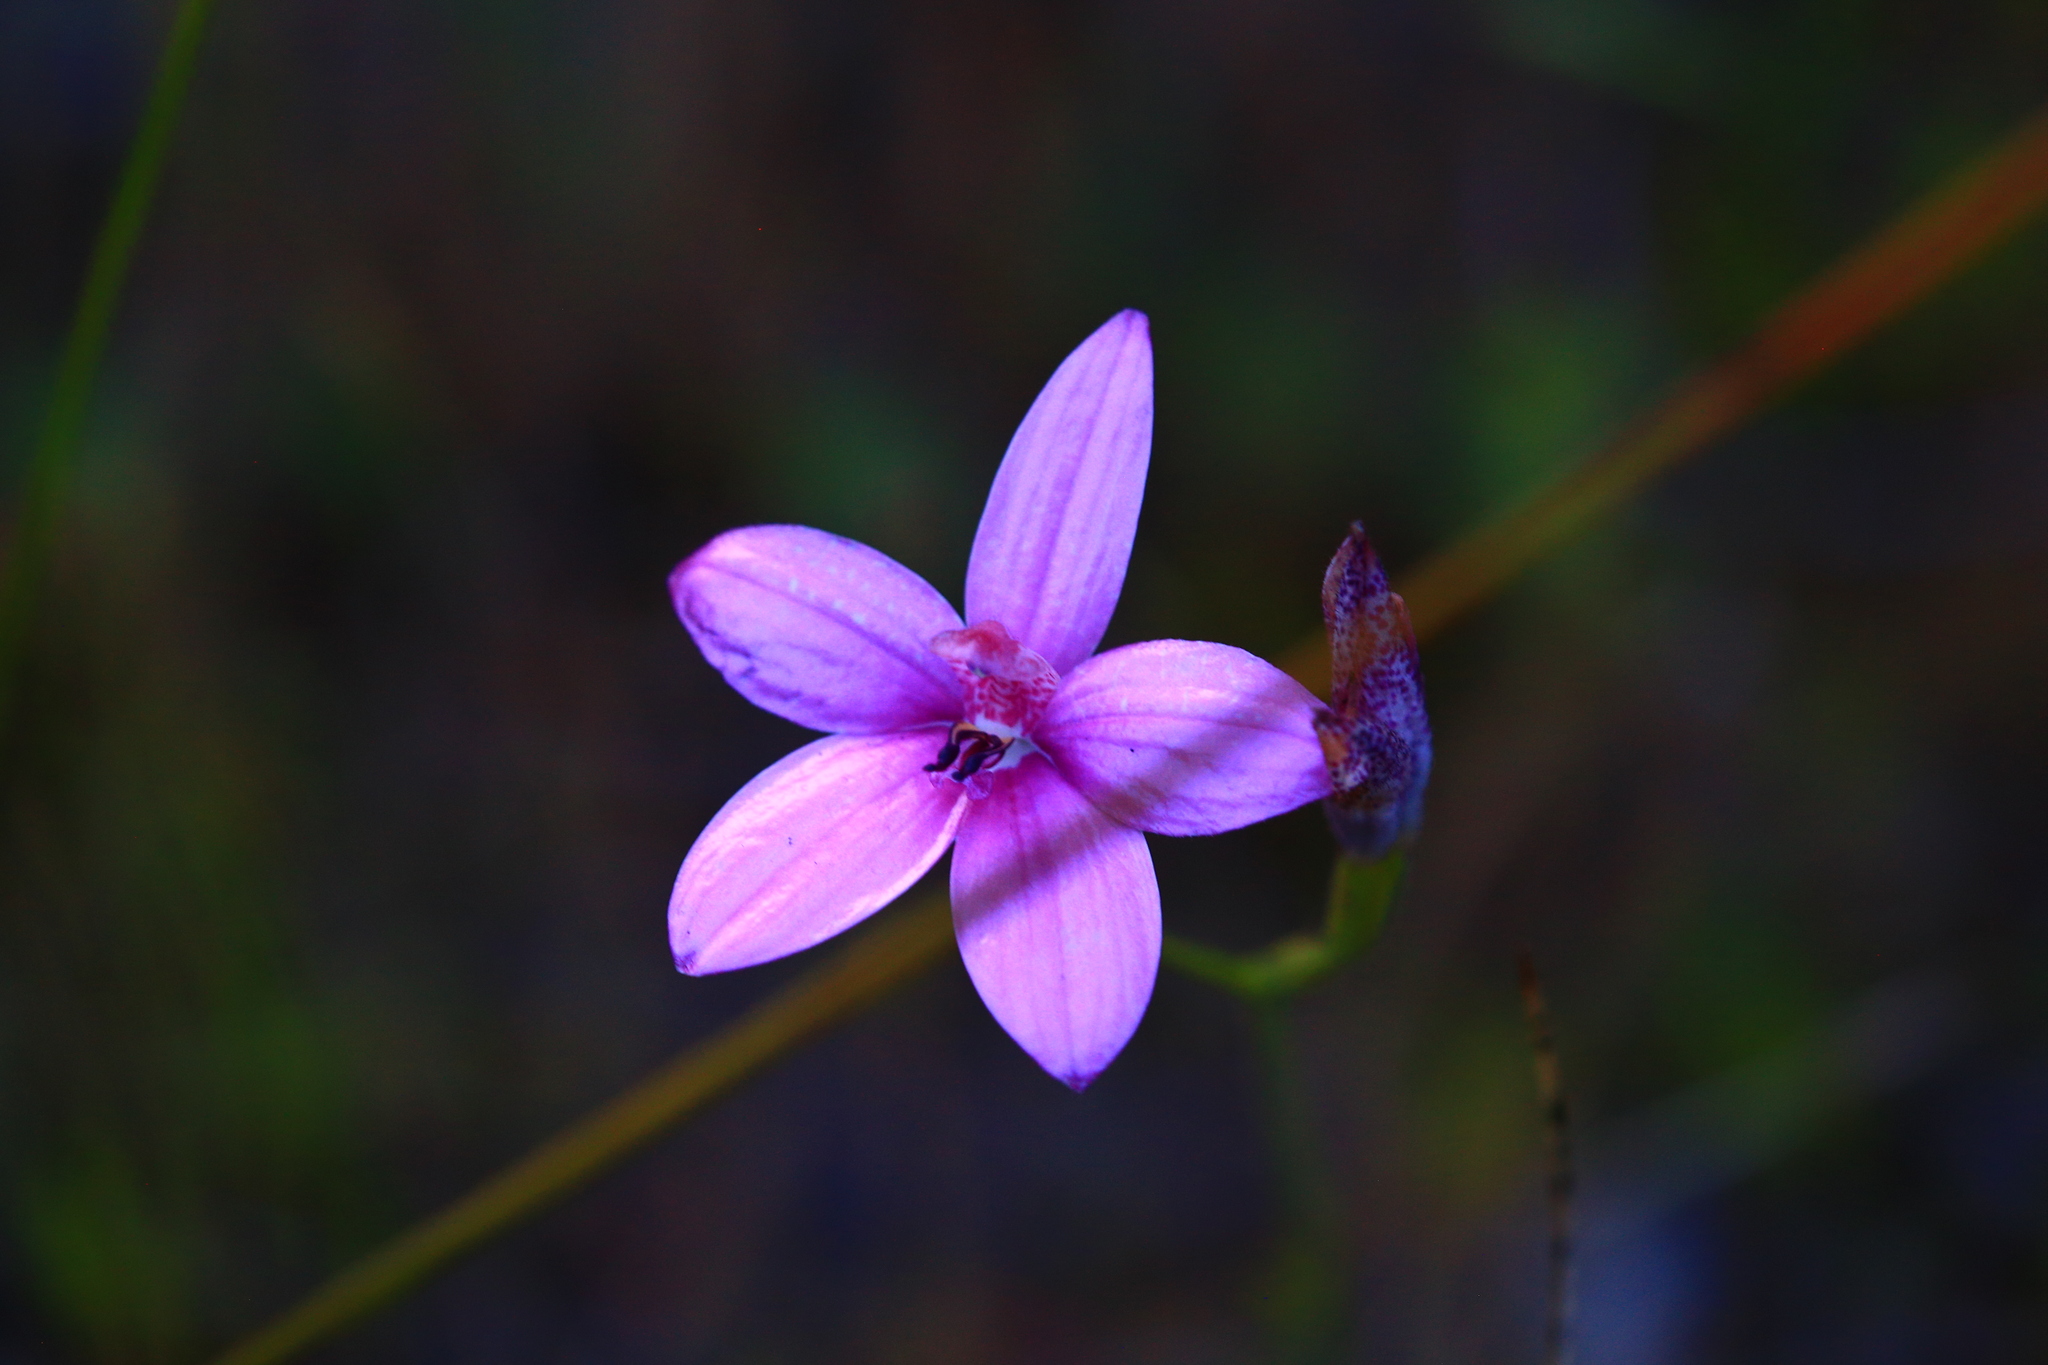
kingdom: Plantae
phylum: Tracheophyta
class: Liliopsida
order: Asparagales
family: Orchidaceae
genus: Caladenia
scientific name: Caladenia emarginata
